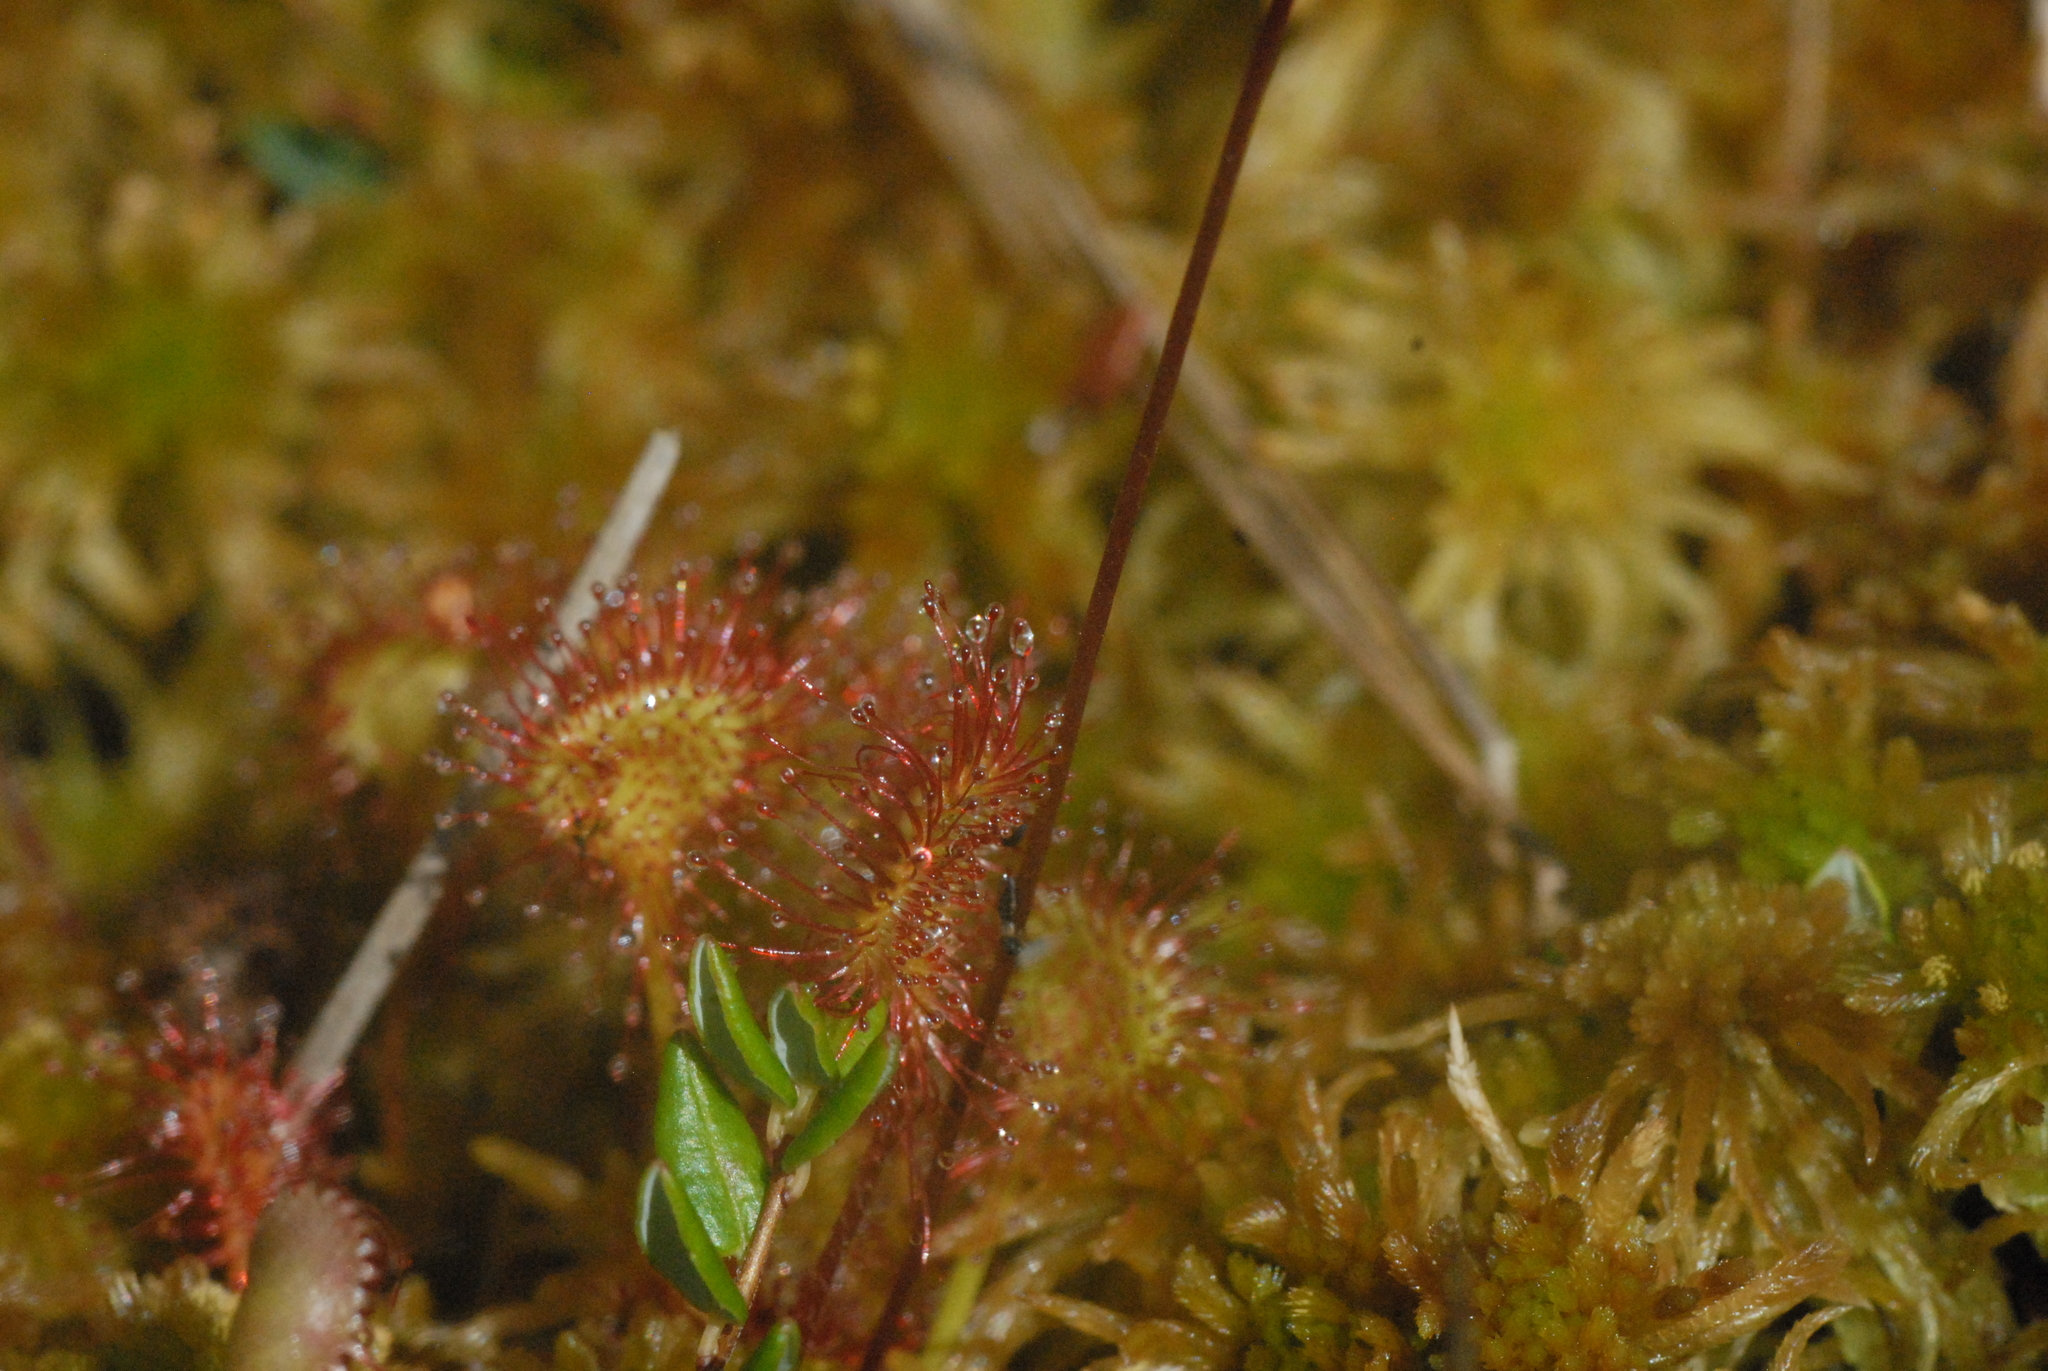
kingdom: Plantae
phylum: Tracheophyta
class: Magnoliopsida
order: Caryophyllales
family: Droseraceae
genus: Drosera
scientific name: Drosera rotundifolia
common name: Round-leaved sundew
